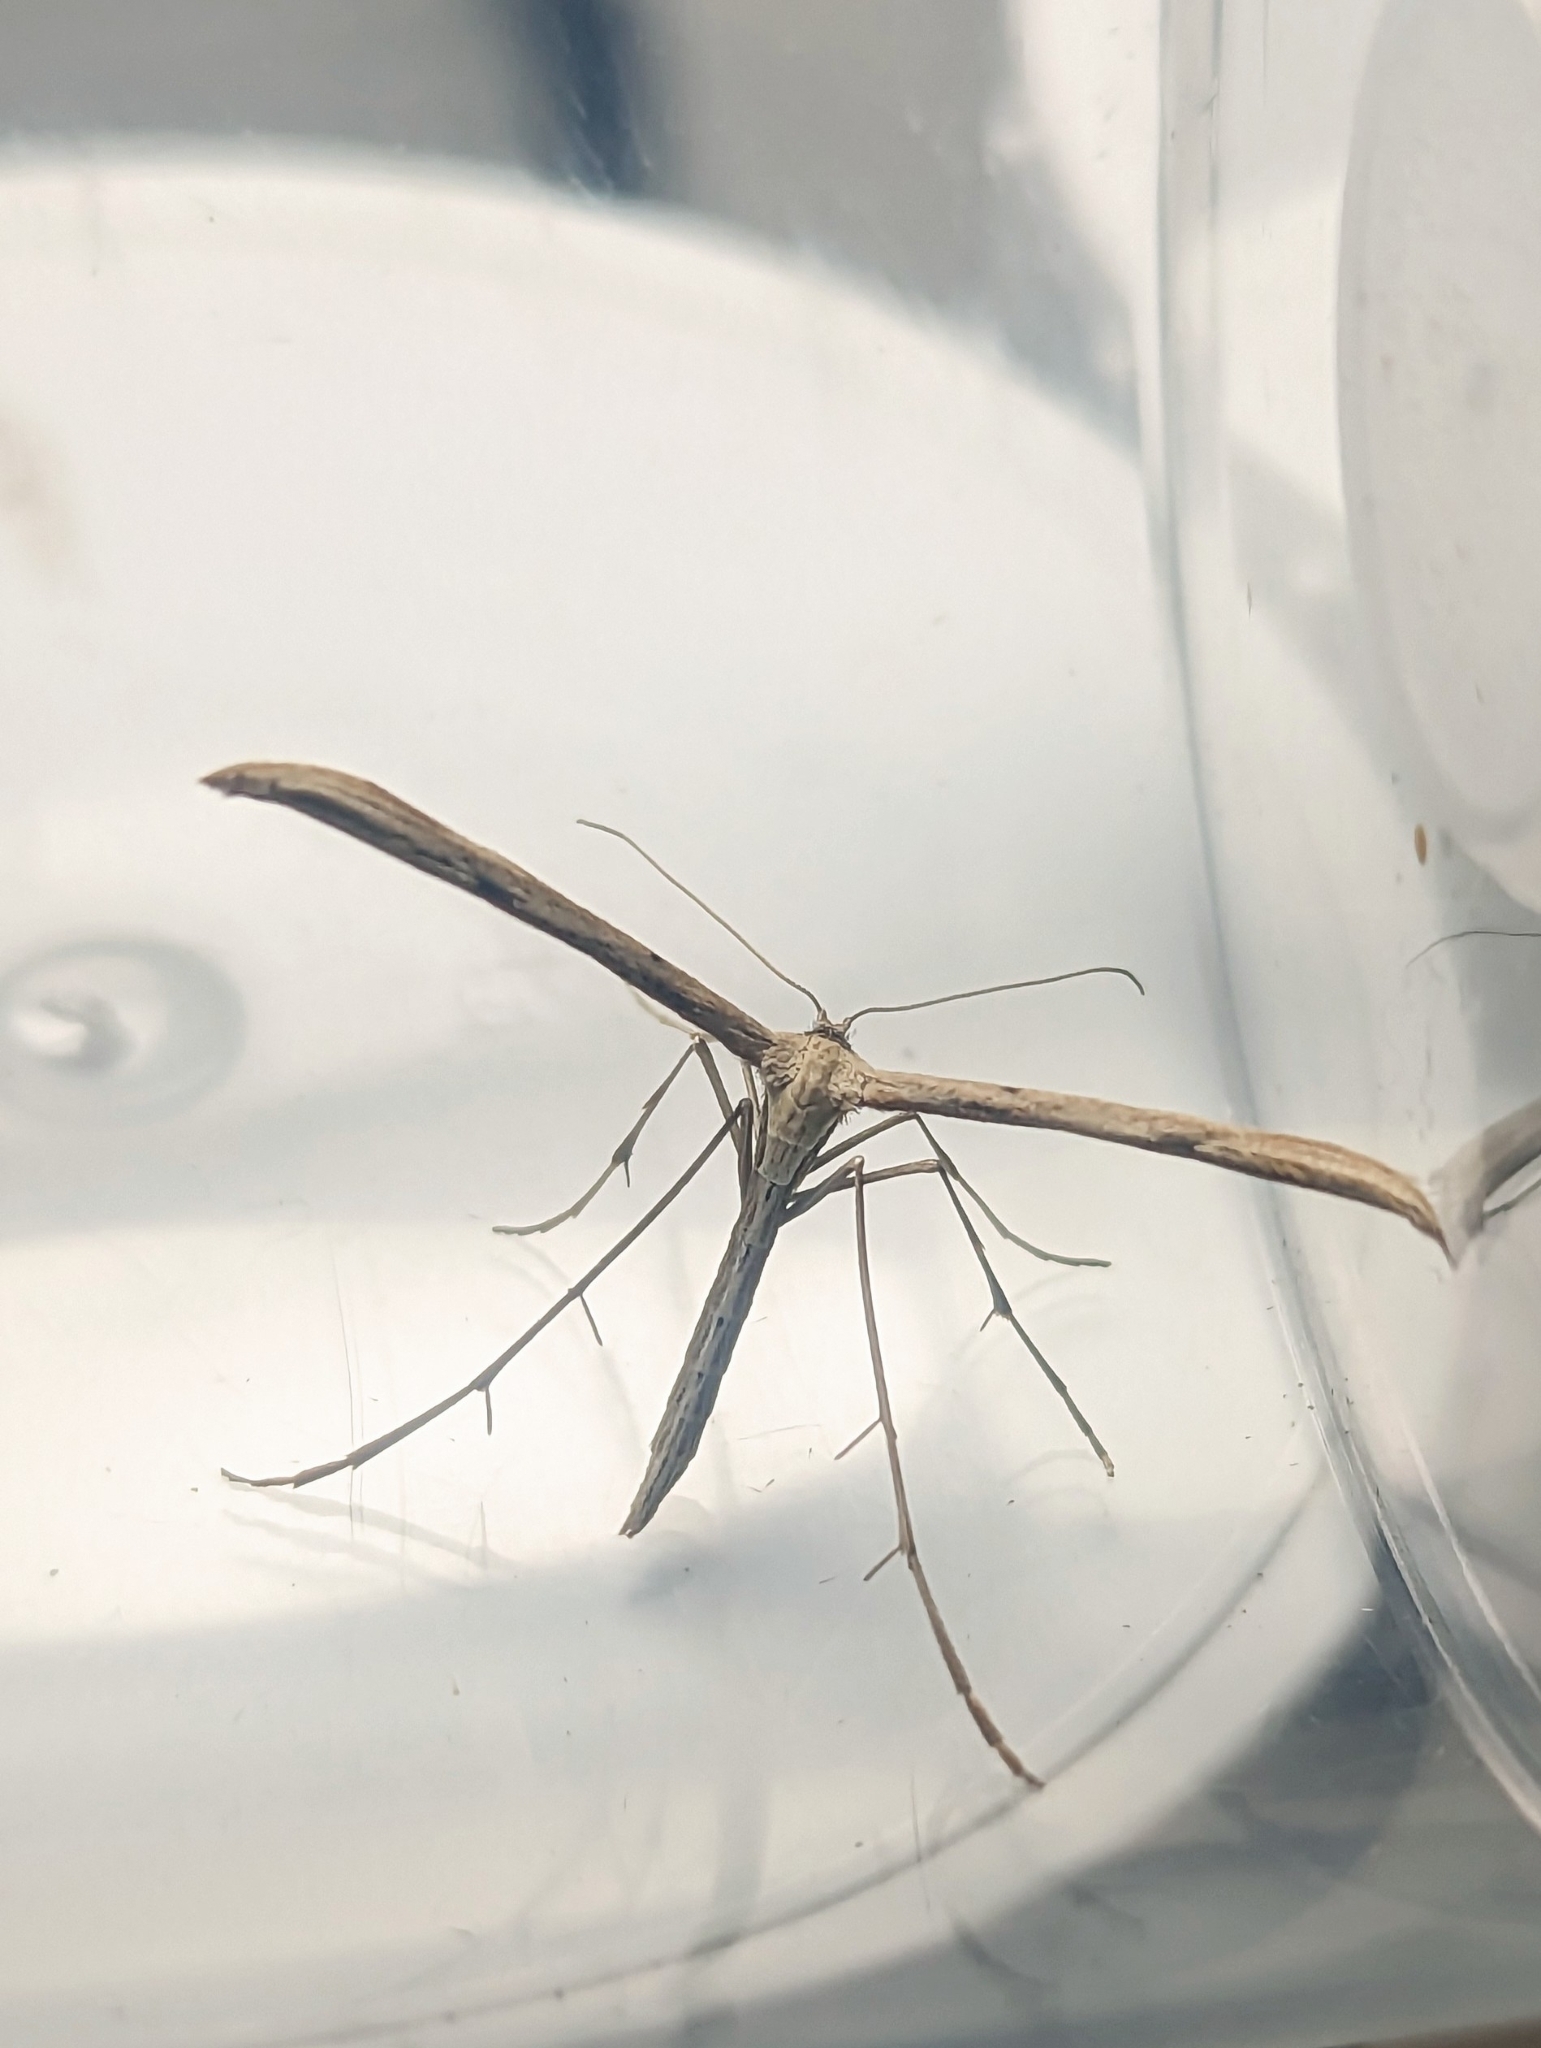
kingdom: Animalia
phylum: Arthropoda
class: Insecta
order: Lepidoptera
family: Pterophoridae
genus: Emmelina
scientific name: Emmelina monodactyla
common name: Common plume
